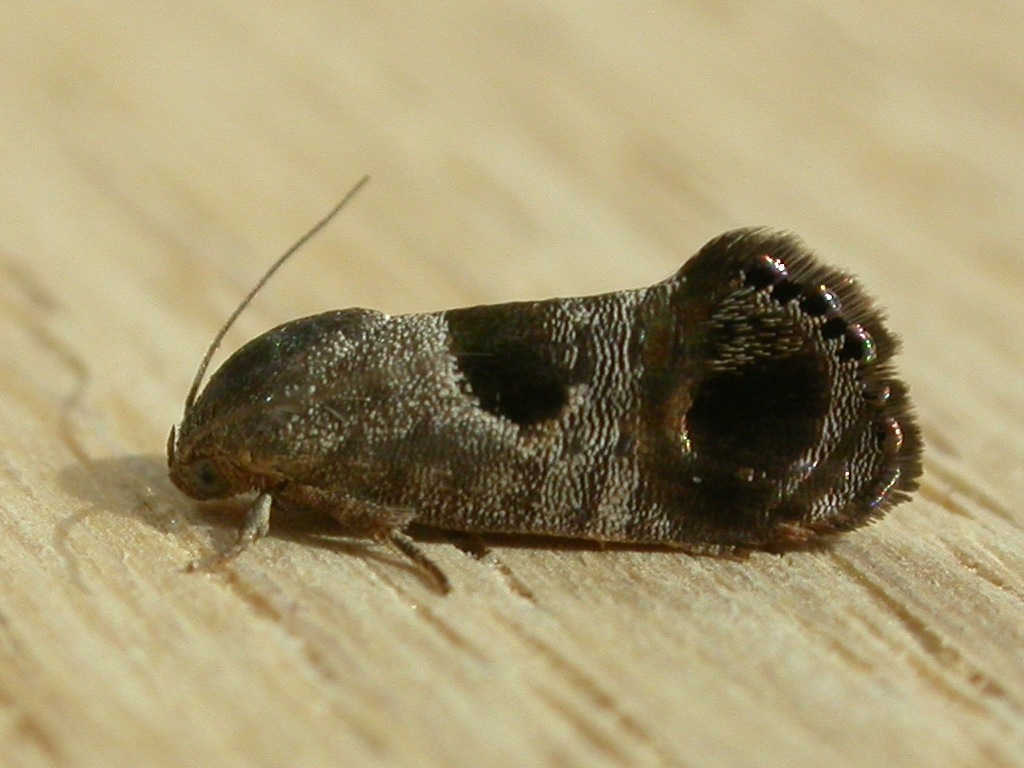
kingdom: Animalia
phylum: Arthropoda
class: Insecta
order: Lepidoptera
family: Depressariidae
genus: Eupselia
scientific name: Eupselia beatella
